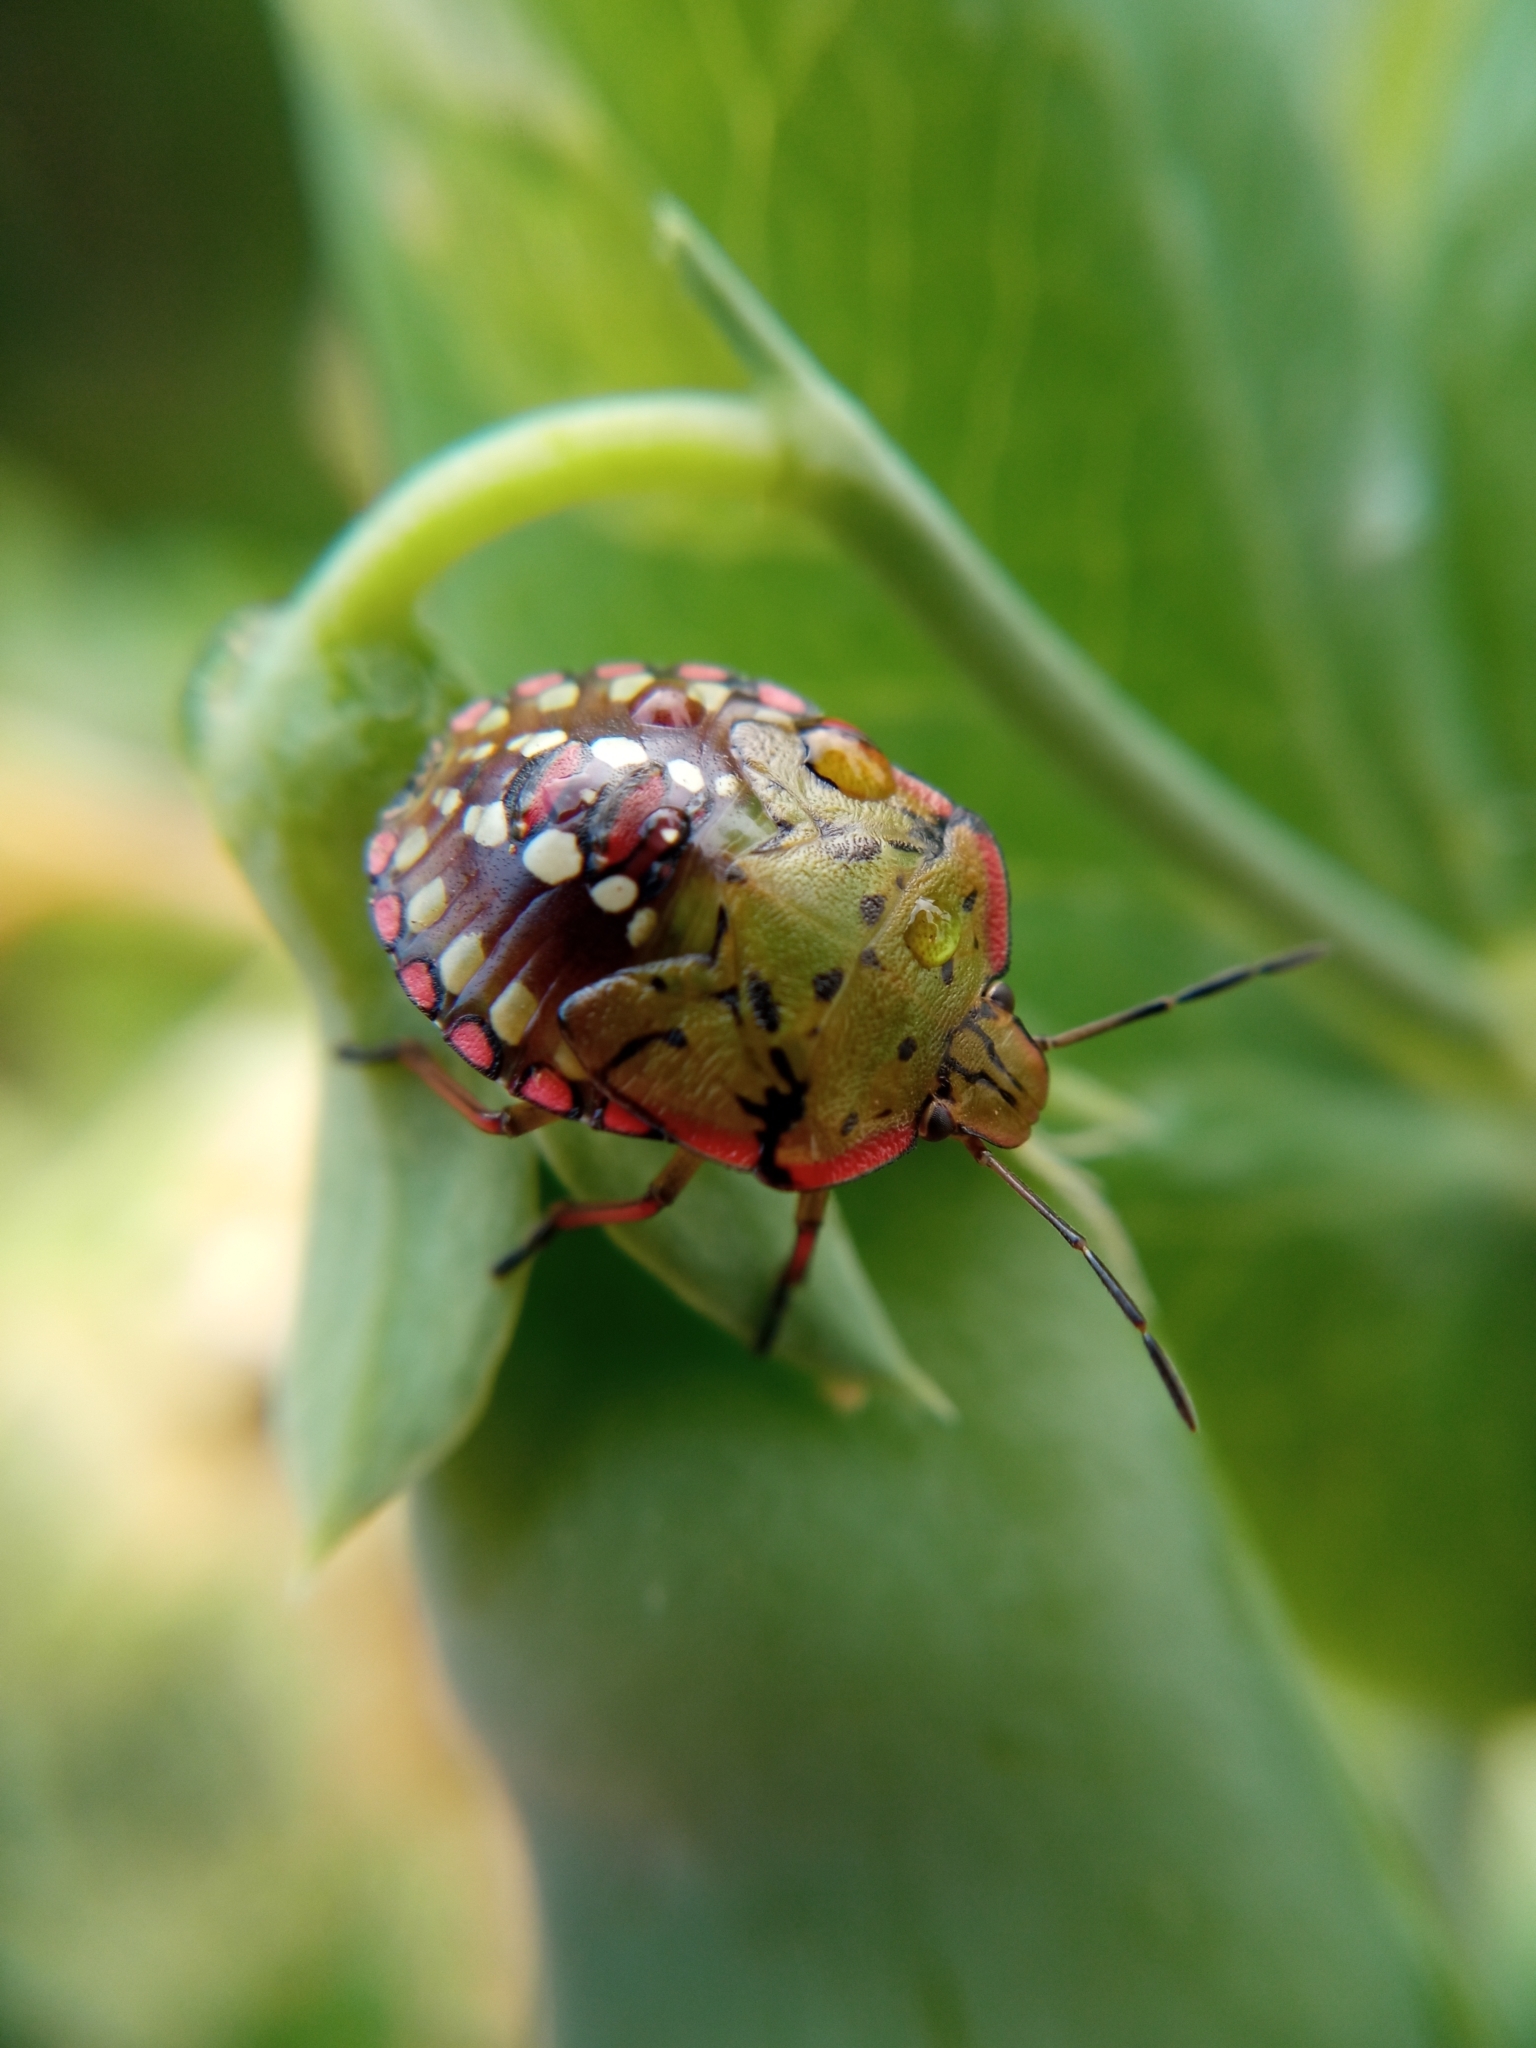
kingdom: Animalia
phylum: Arthropoda
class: Insecta
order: Hemiptera
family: Pentatomidae
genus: Nezara
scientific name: Nezara viridula
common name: Southern green stink bug
